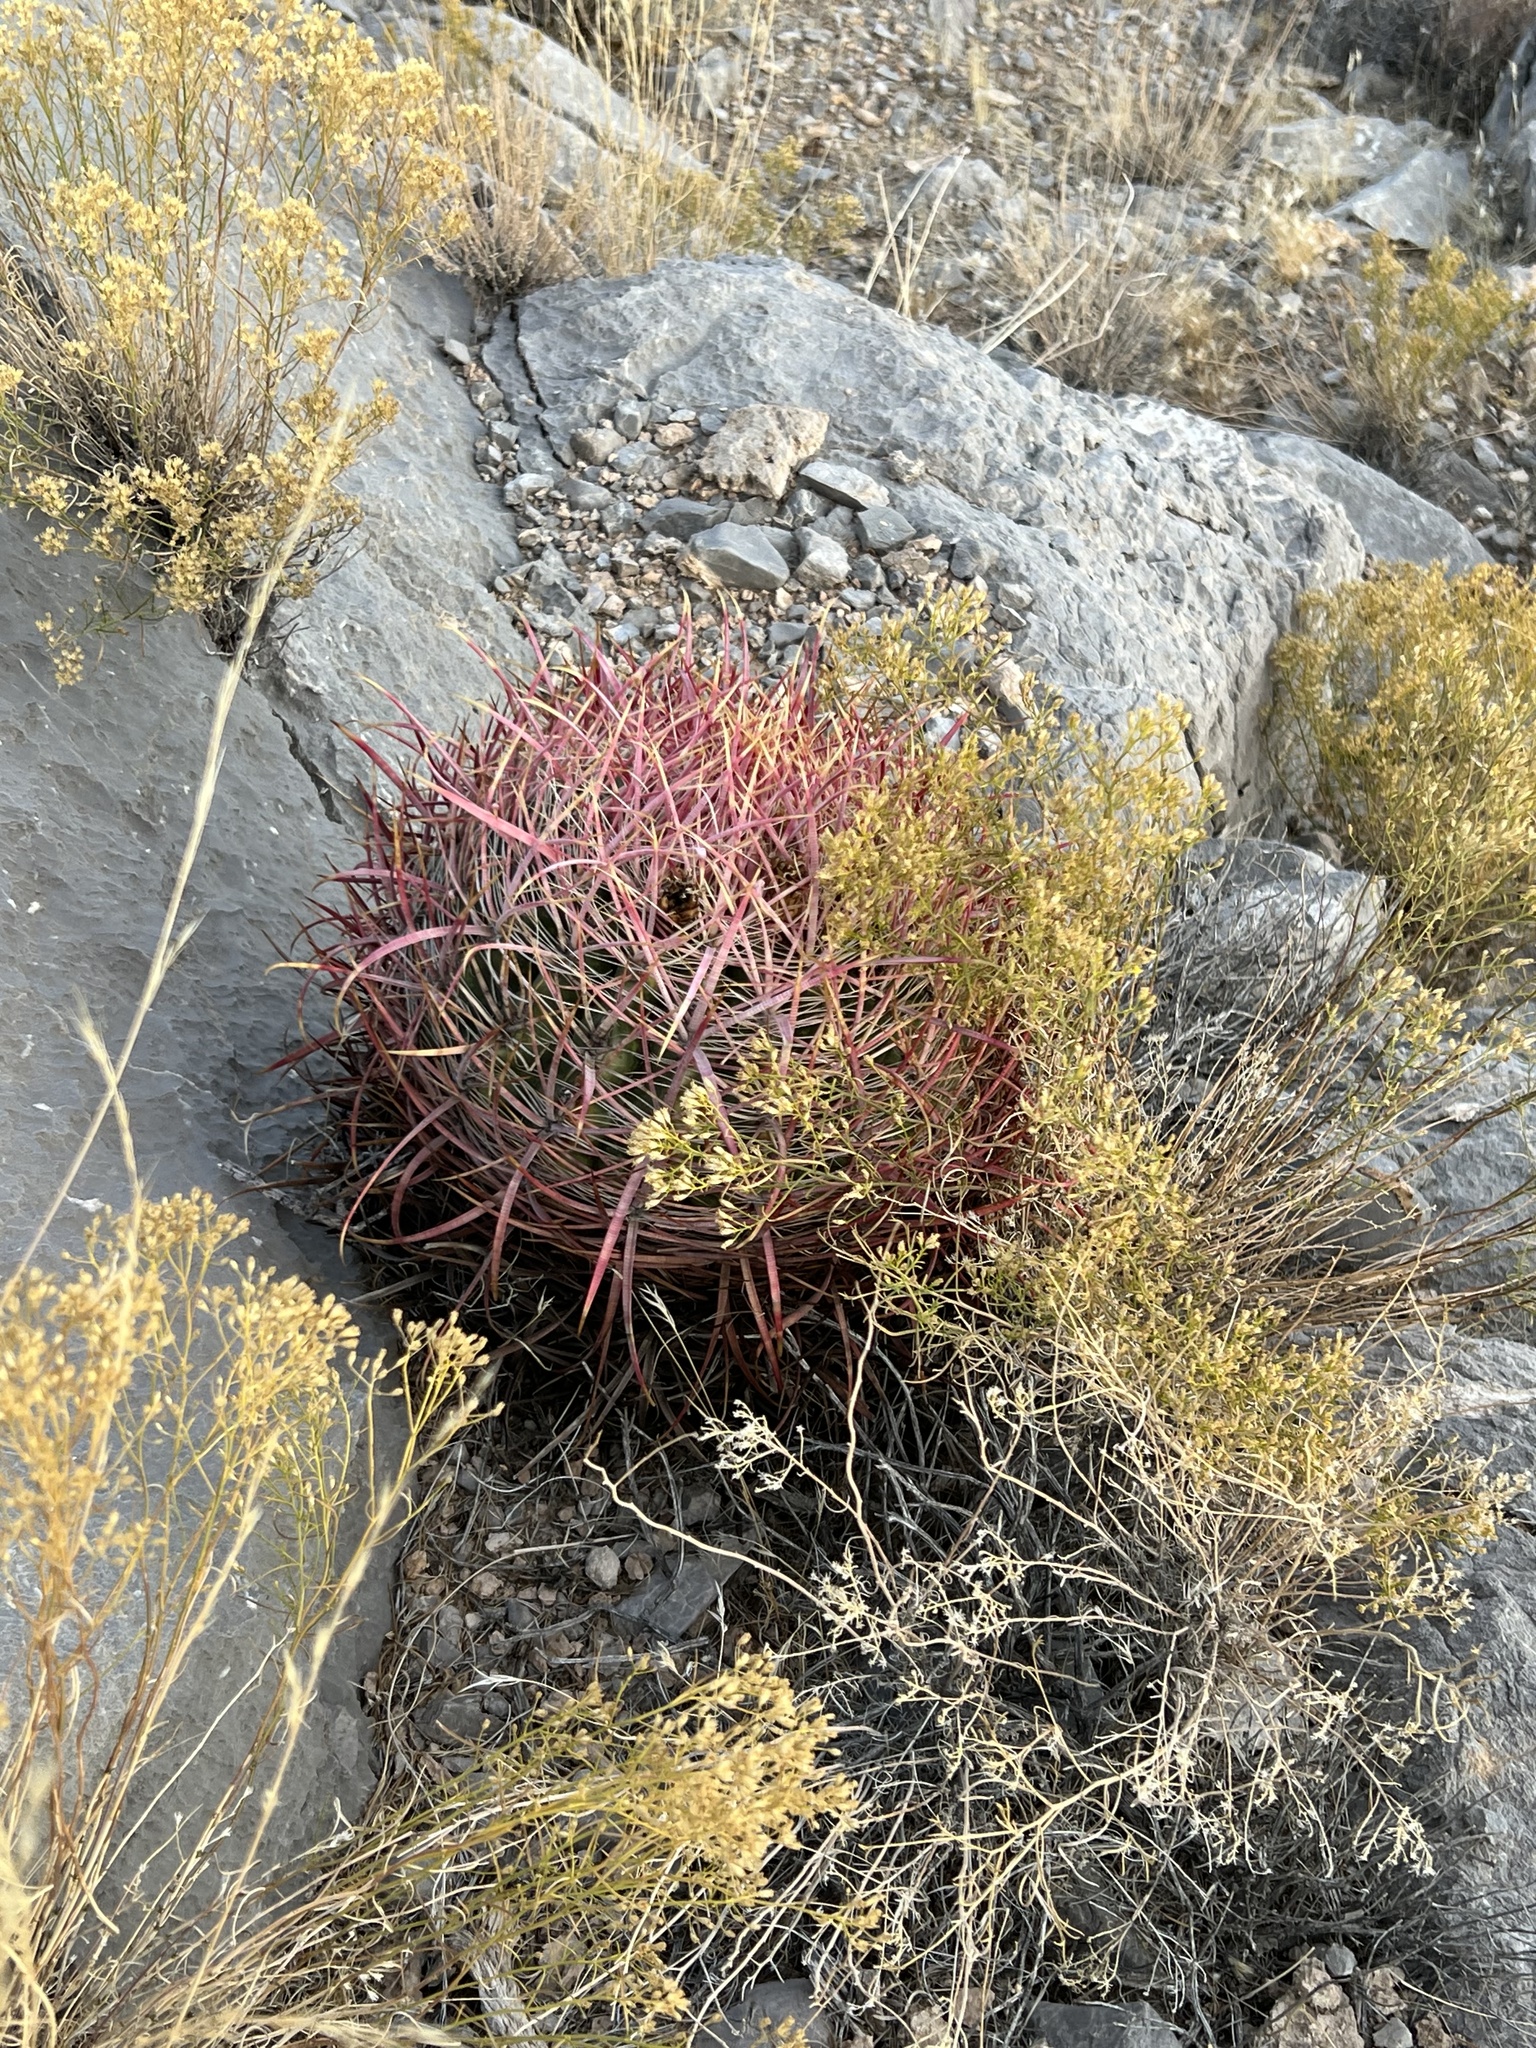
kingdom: Plantae
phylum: Tracheophyta
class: Magnoliopsida
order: Caryophyllales
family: Cactaceae
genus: Ferocactus
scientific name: Ferocactus cylindraceus
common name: California barrel cactus
